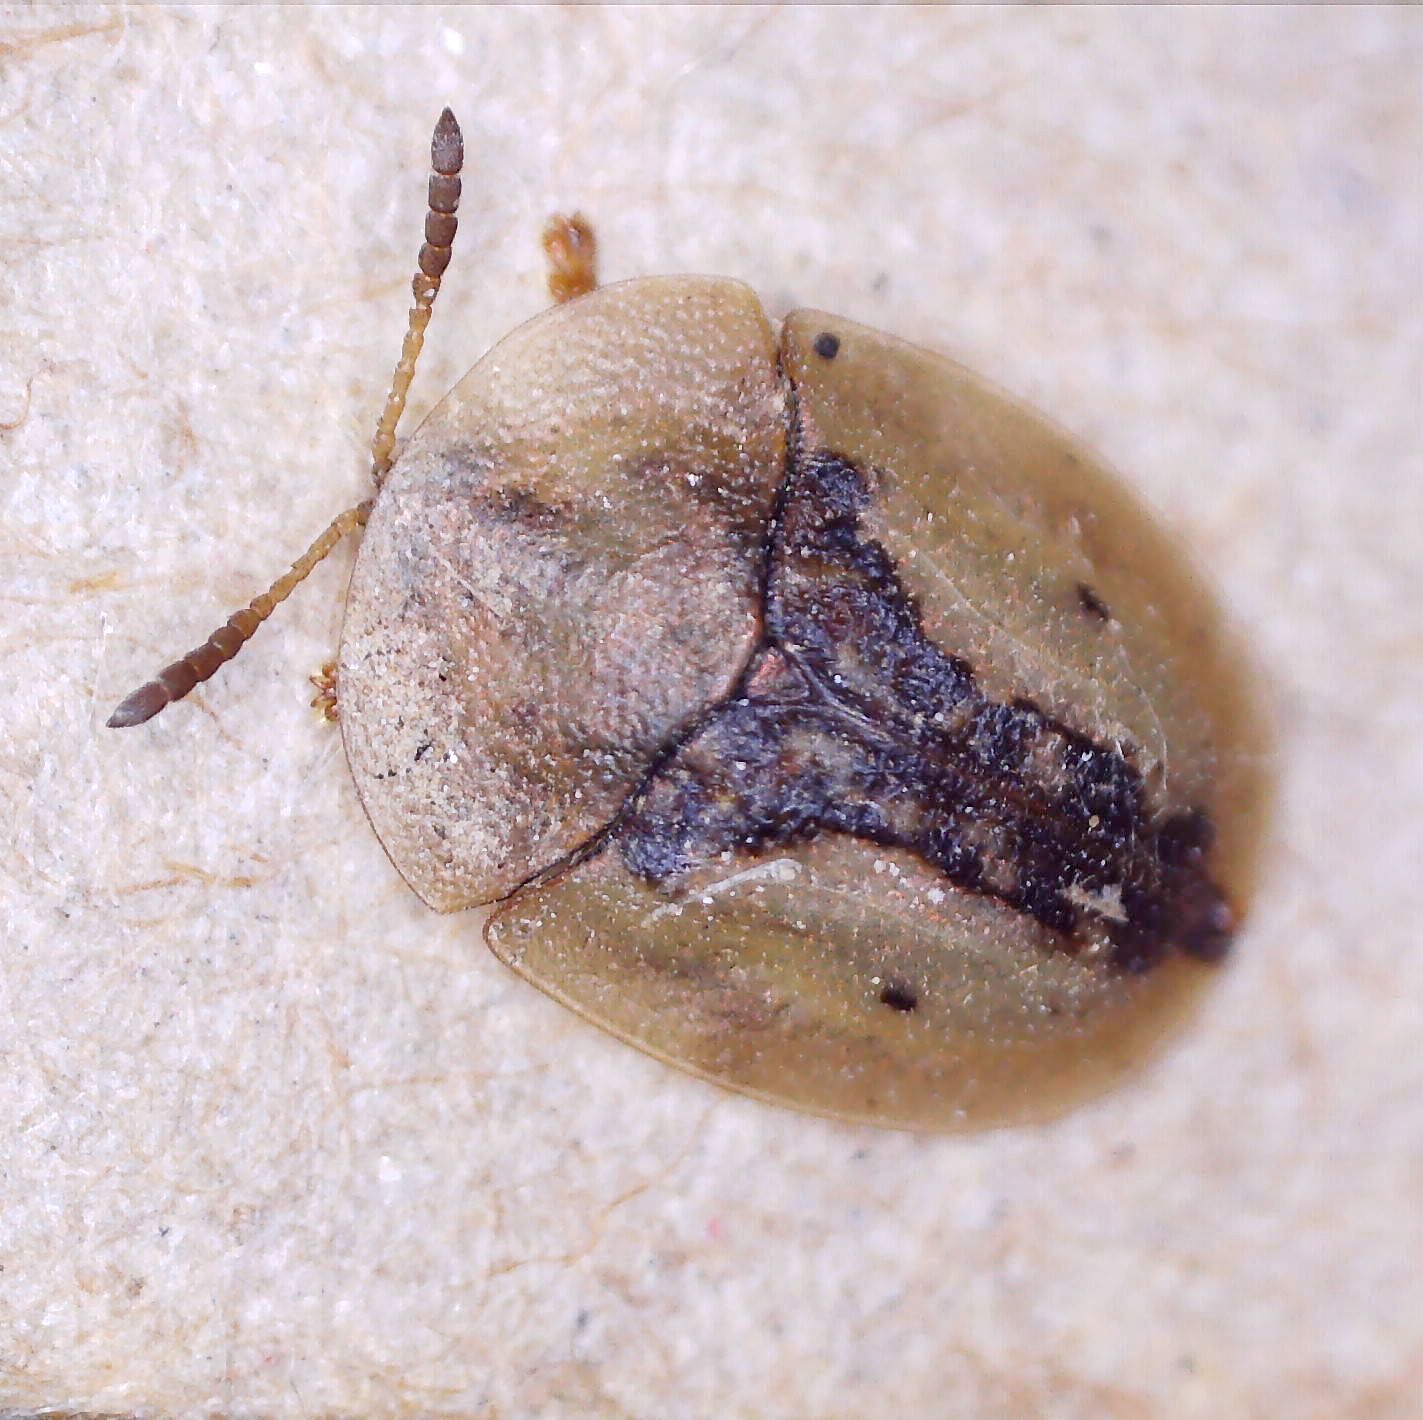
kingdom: Animalia
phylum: Arthropoda
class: Insecta
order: Coleoptera
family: Chrysomelidae
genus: Cassida
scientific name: Cassida vibex
